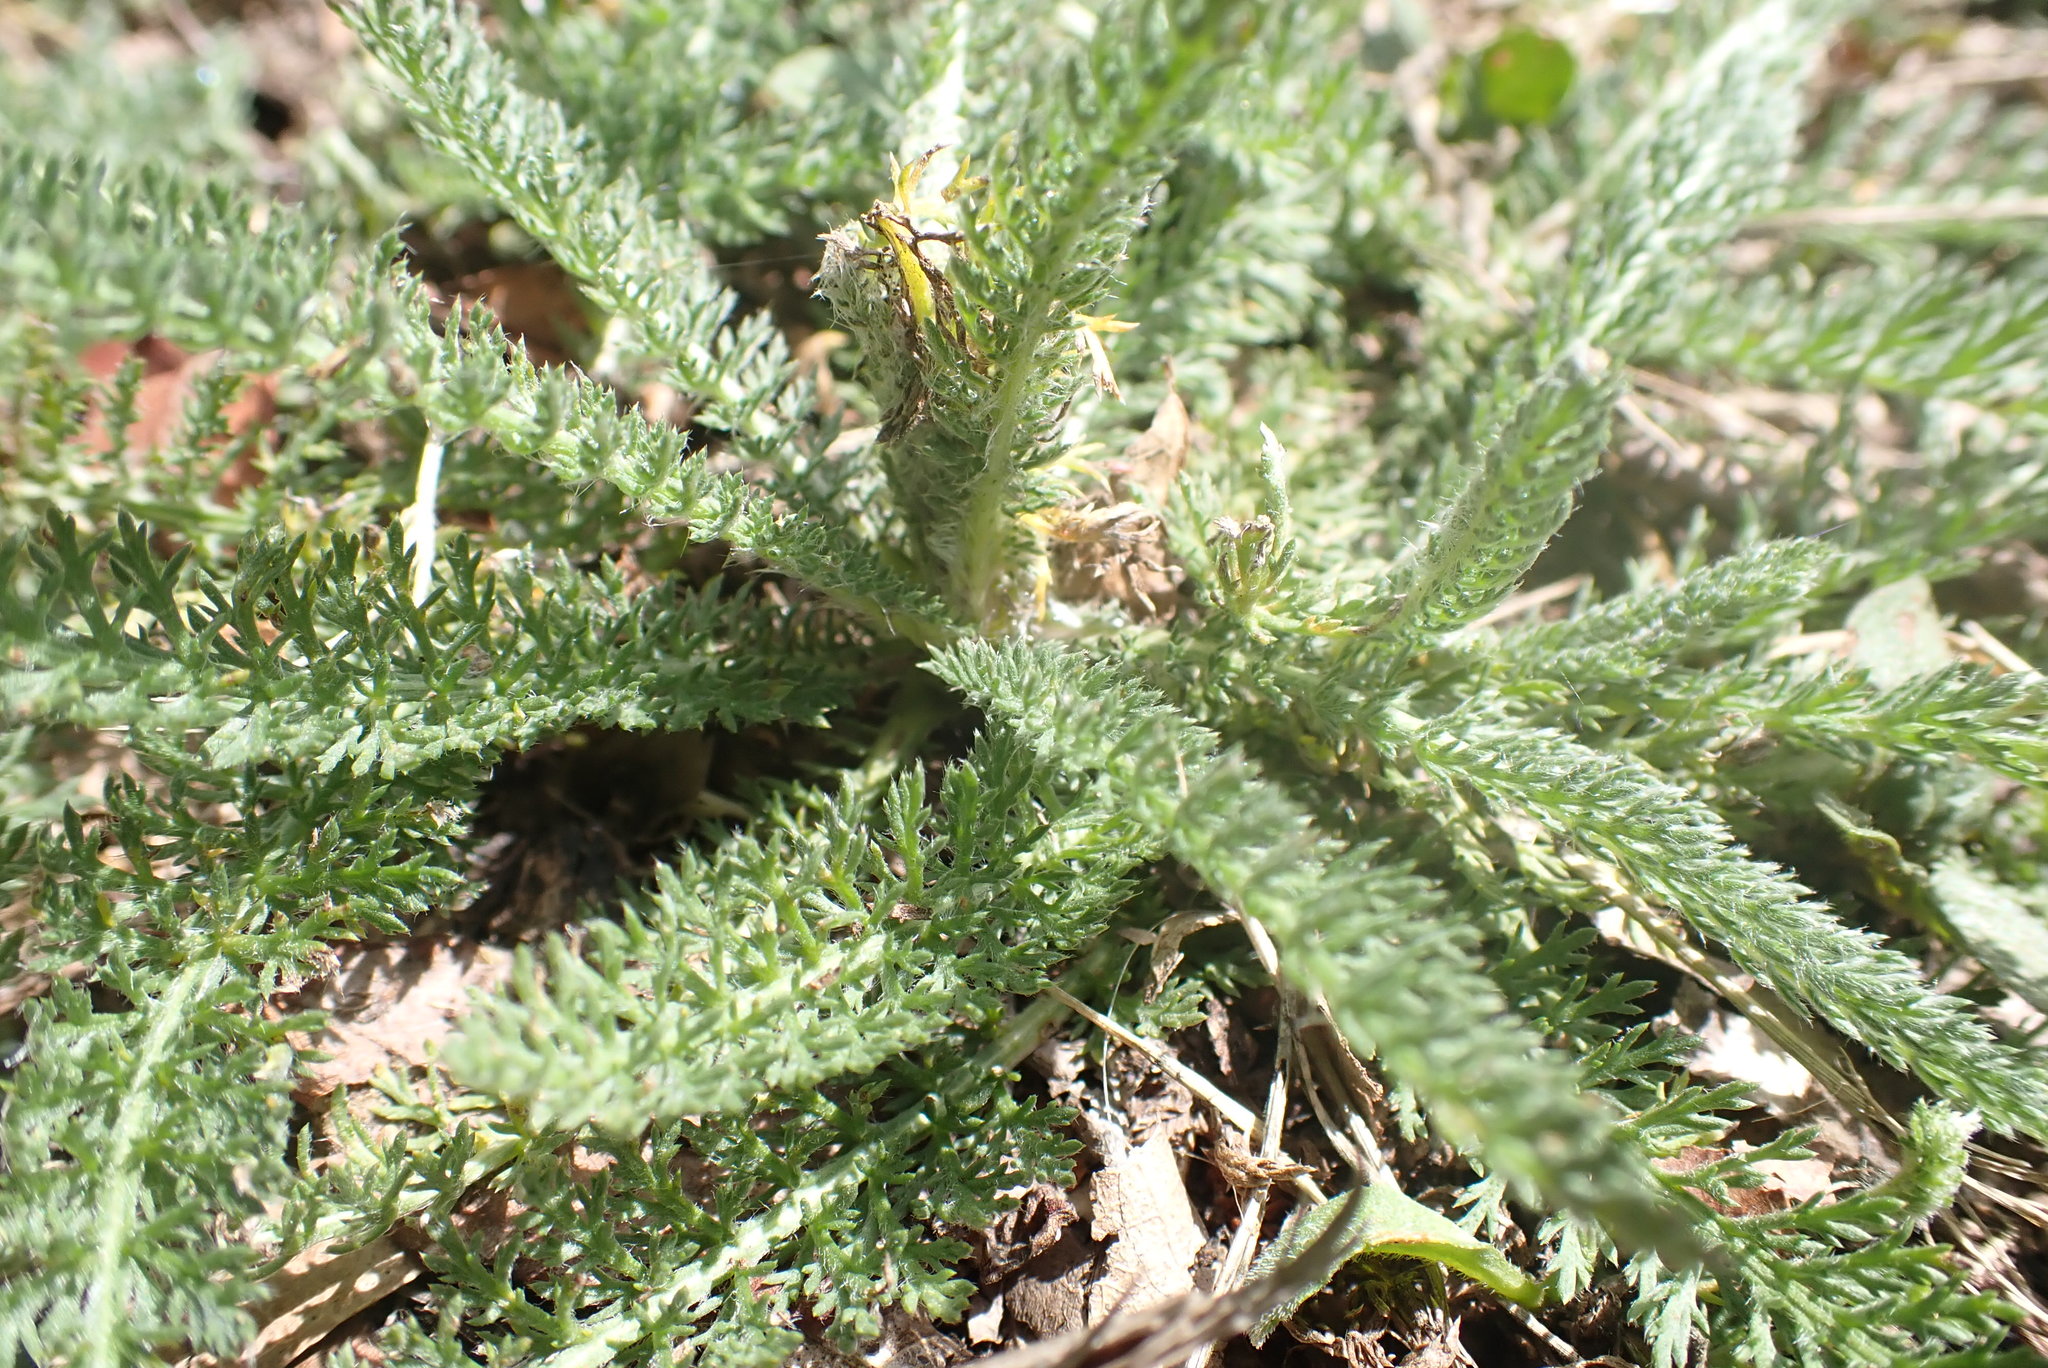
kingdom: Plantae
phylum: Tracheophyta
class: Magnoliopsida
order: Asterales
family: Asteraceae
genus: Achillea
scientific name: Achillea millefolium
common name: Yarrow
